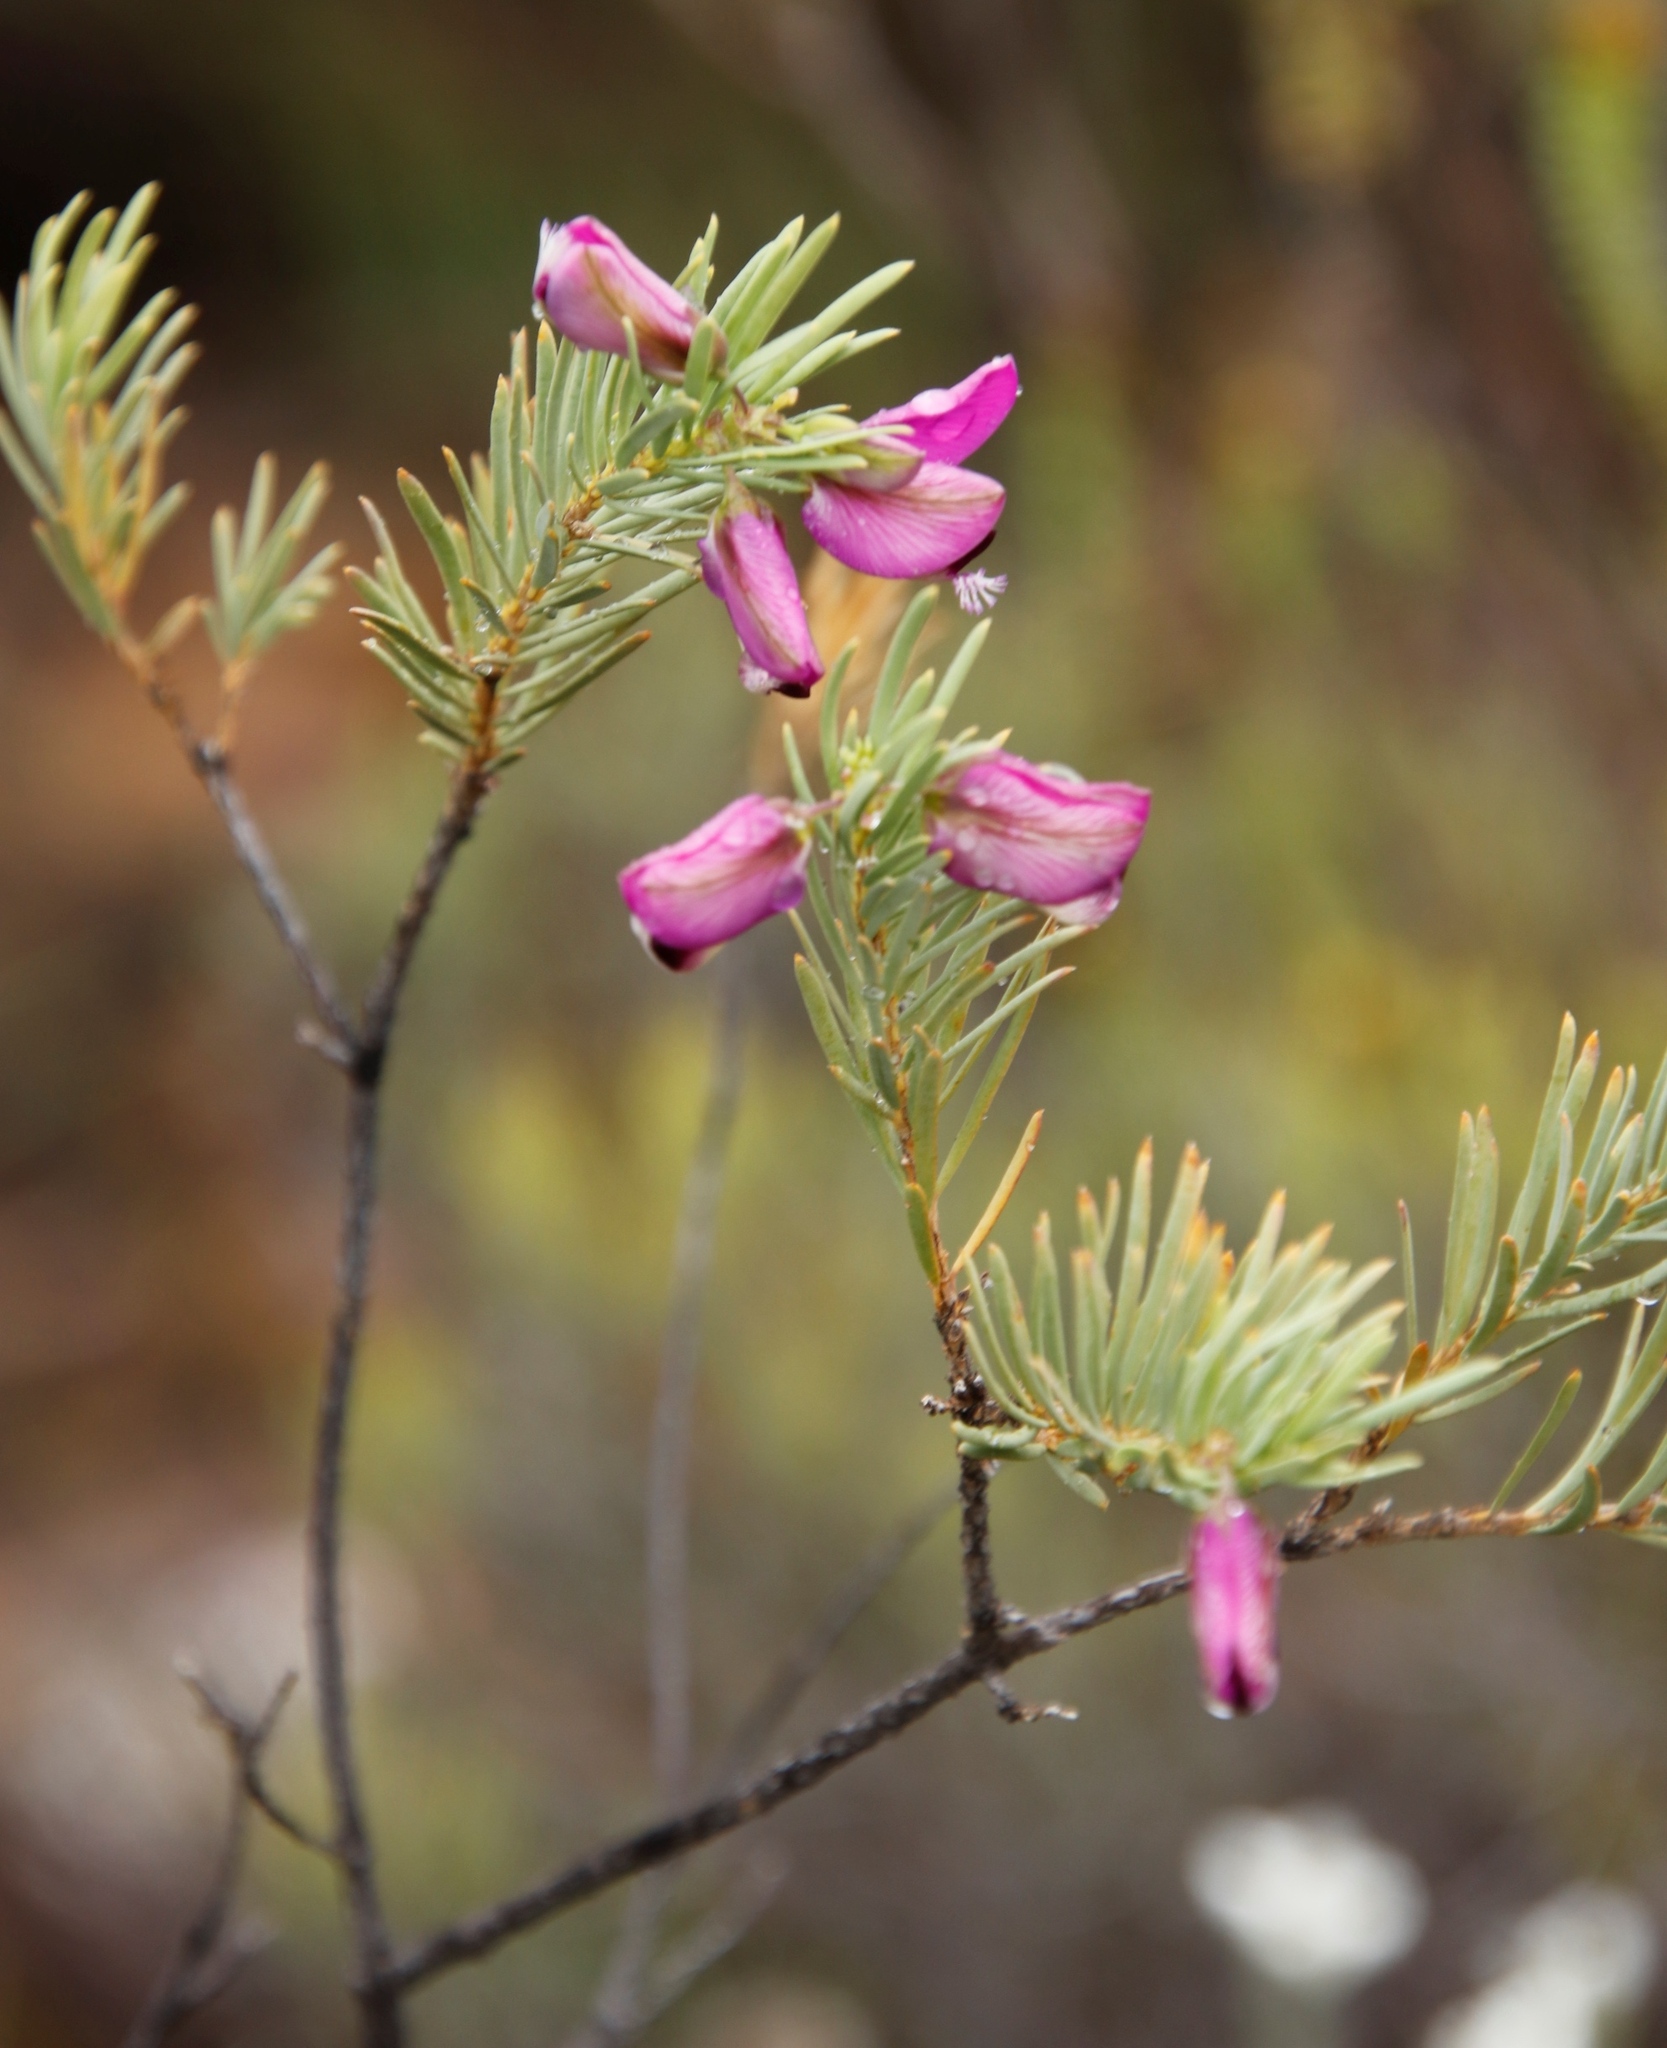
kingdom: Plantae
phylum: Tracheophyta
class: Magnoliopsida
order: Fabales
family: Polygalaceae
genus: Polygala
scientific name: Polygala myrtifolia
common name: Myrtle-leaf milkwort
